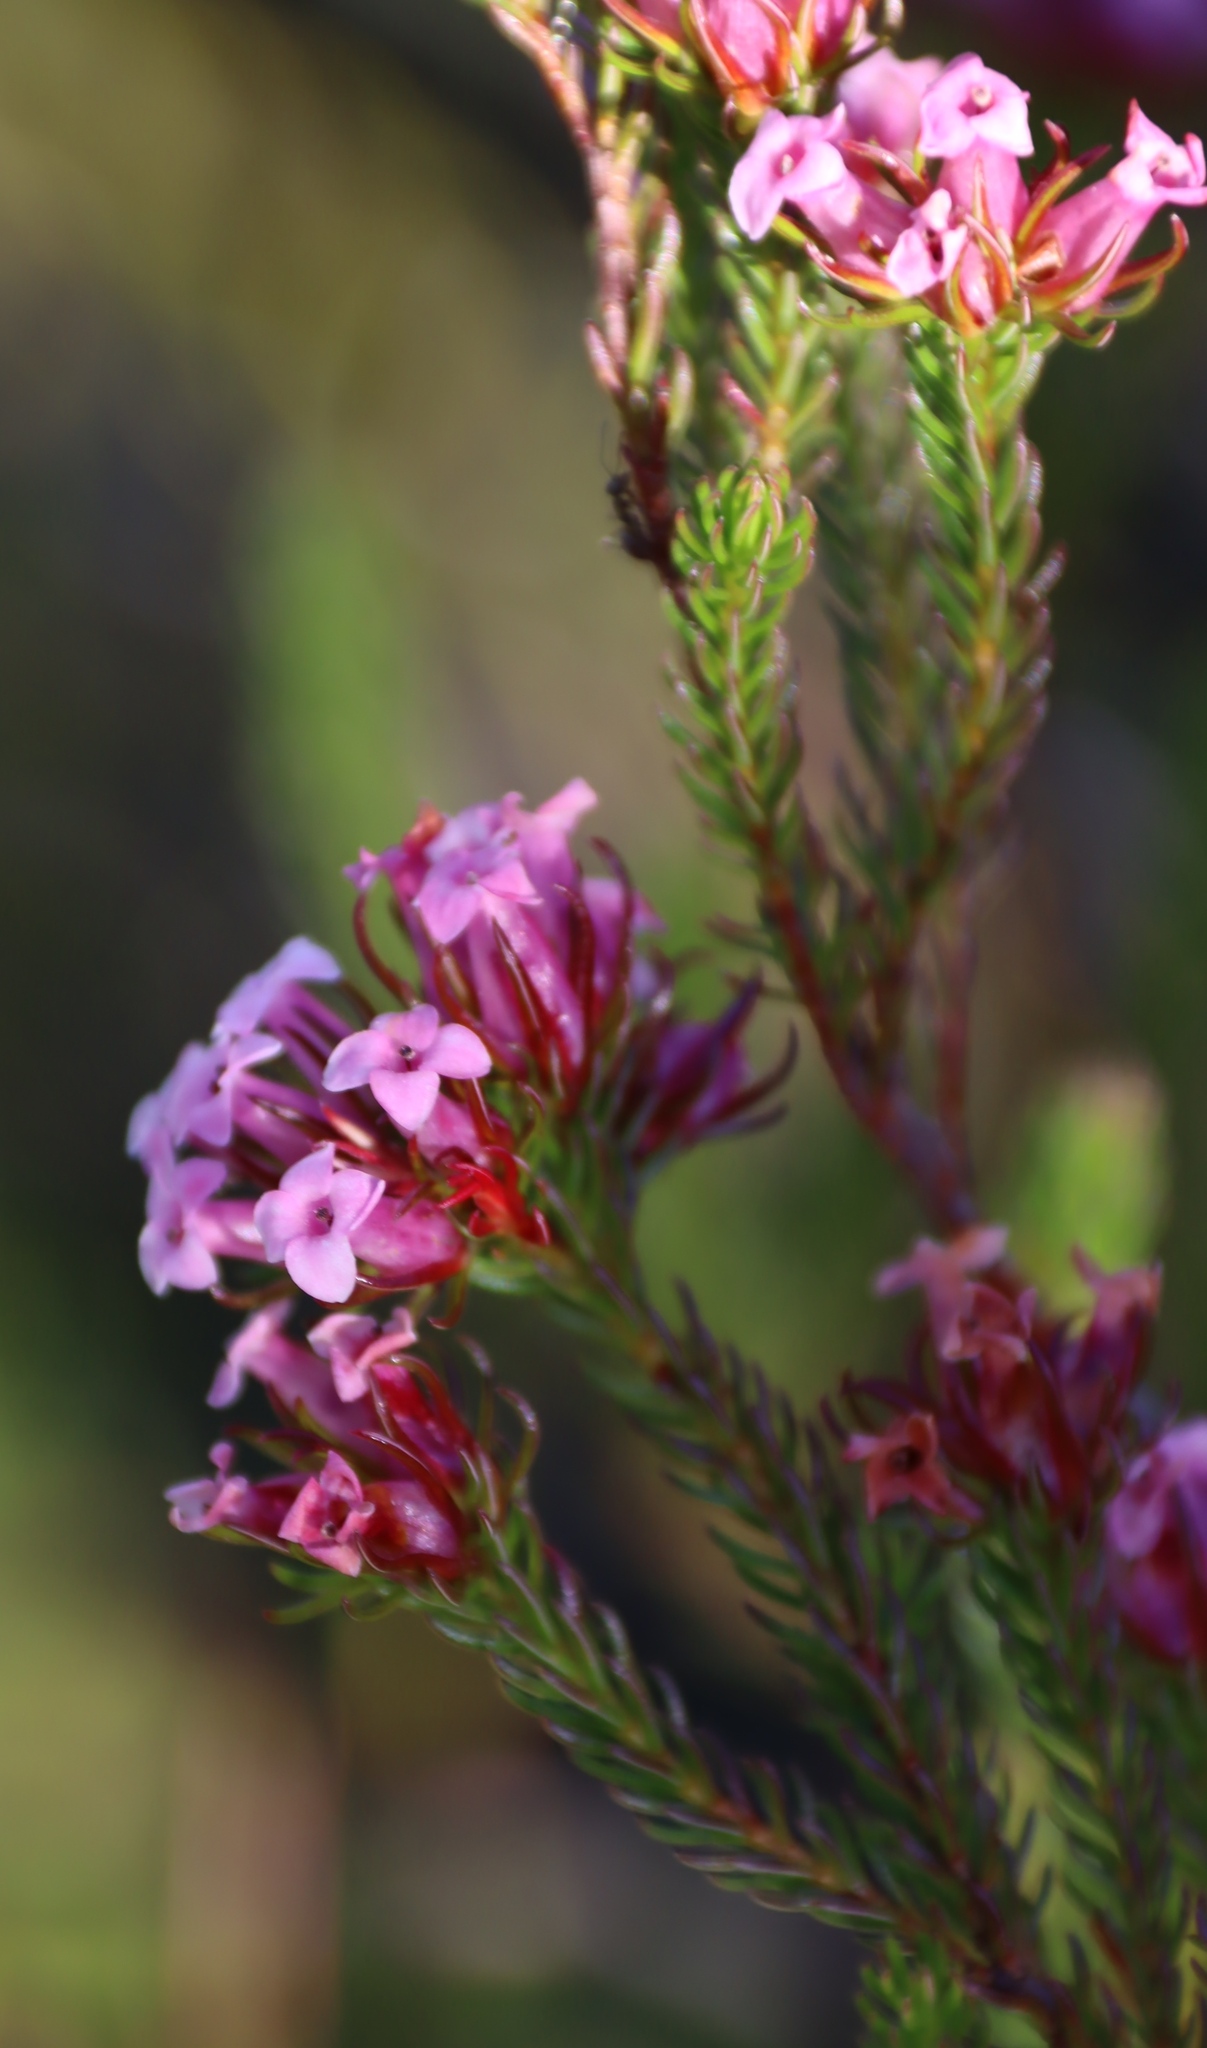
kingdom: Plantae
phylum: Tracheophyta
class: Magnoliopsida
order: Ericales
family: Ericaceae
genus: Erica
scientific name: Erica
